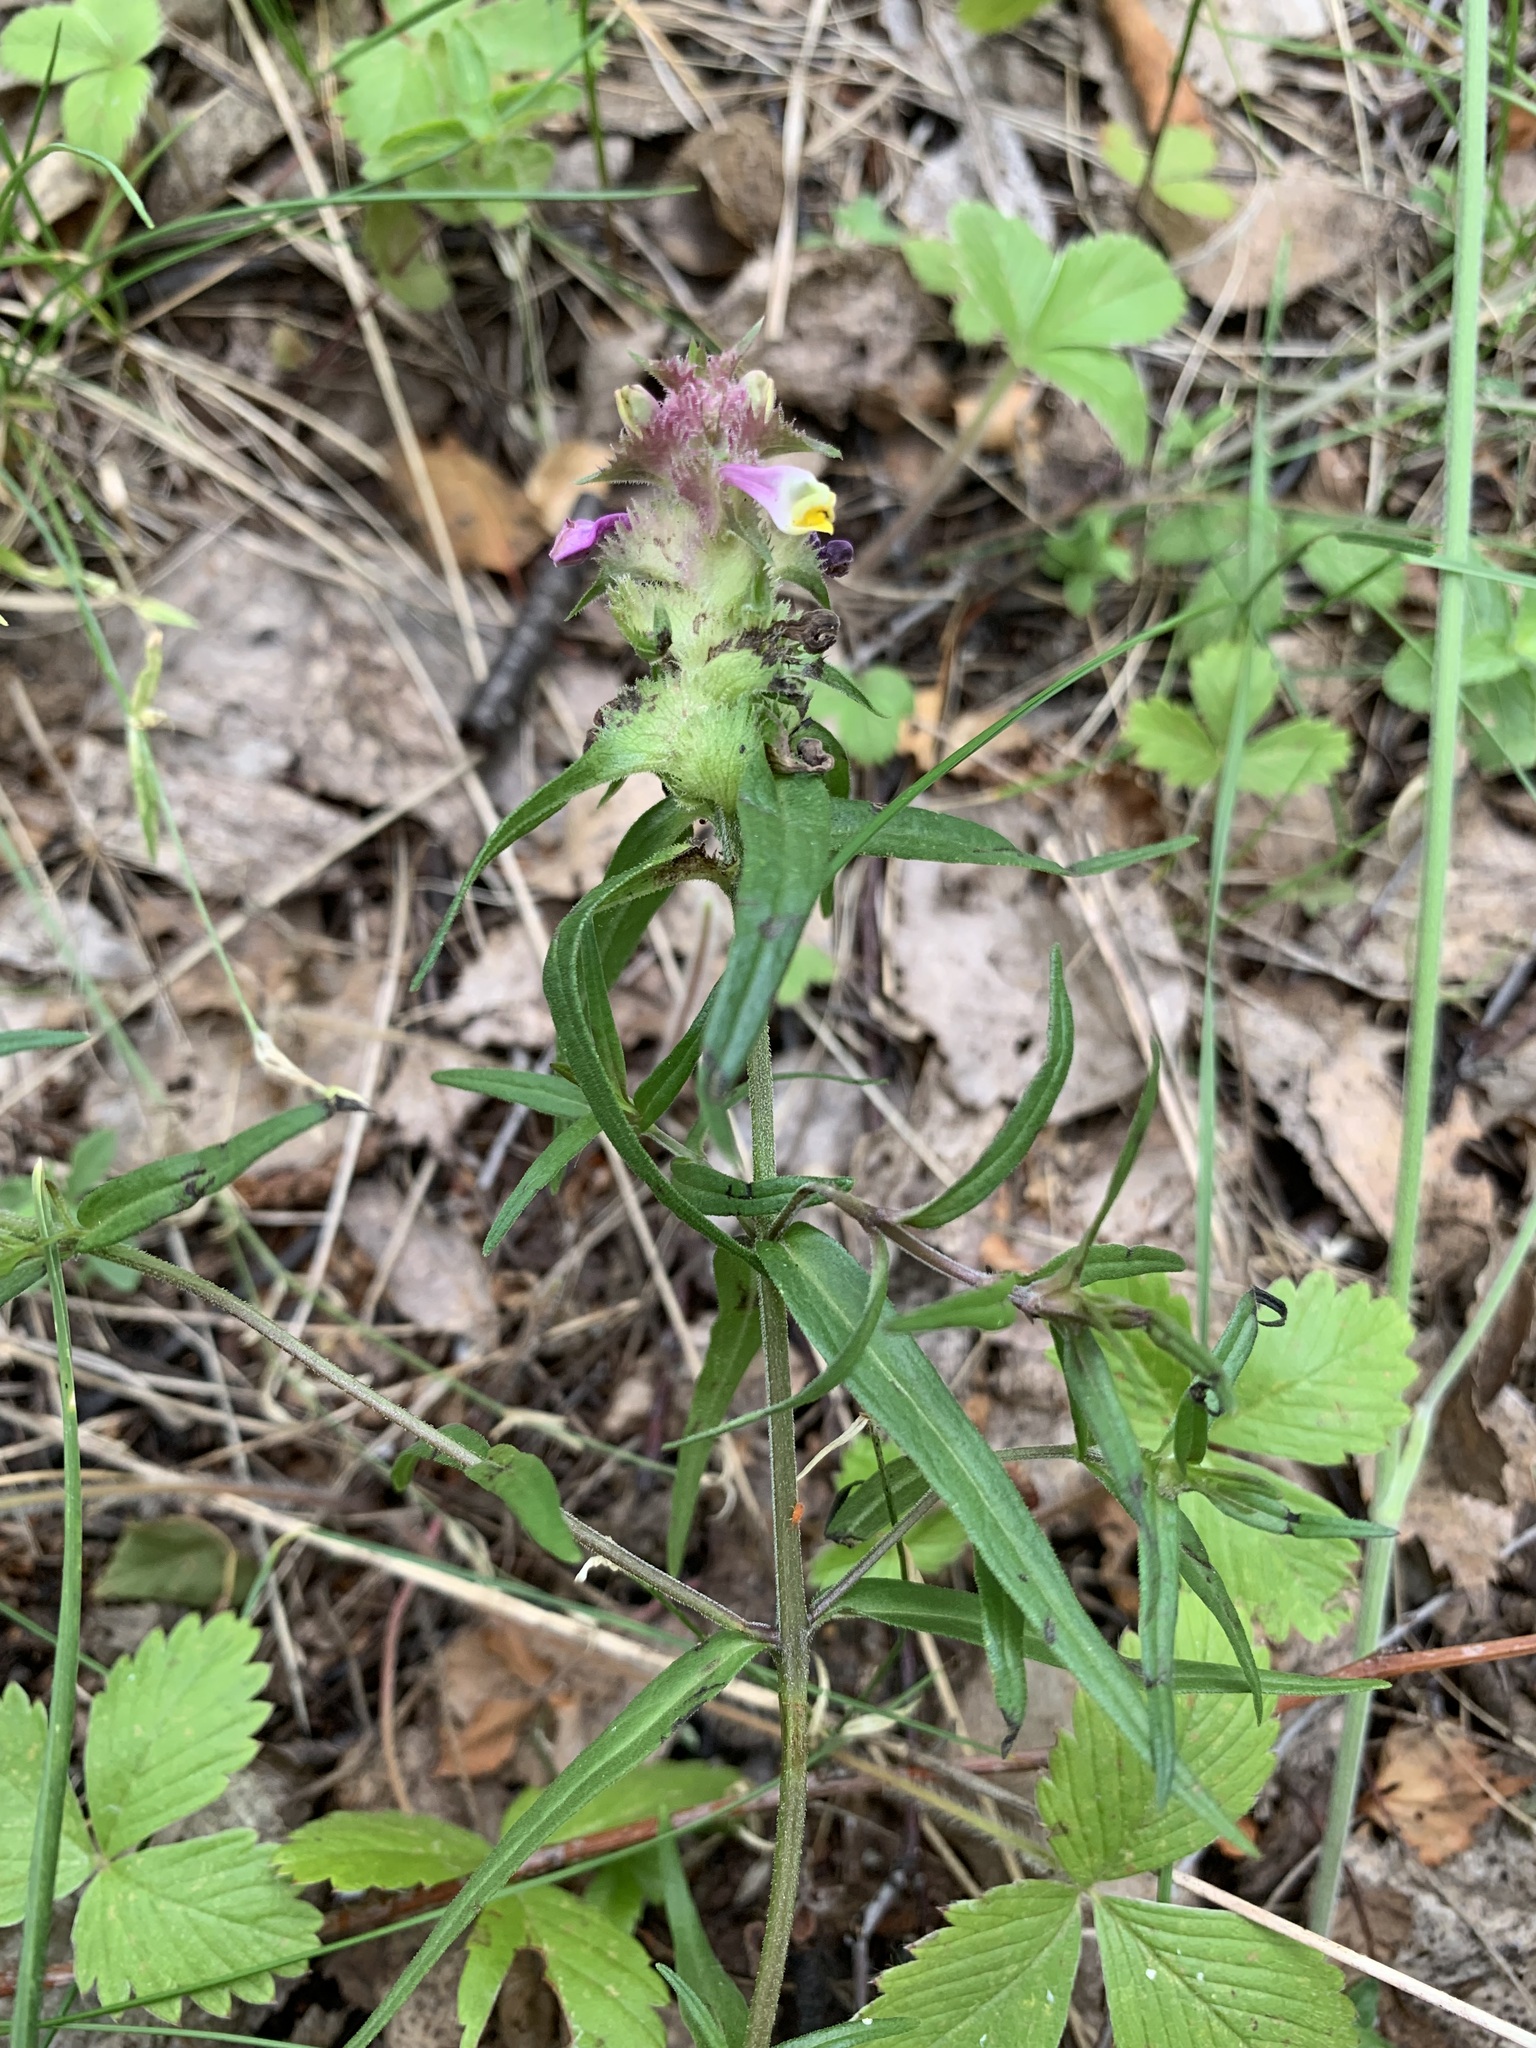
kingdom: Plantae
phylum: Tracheophyta
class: Magnoliopsida
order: Lamiales
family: Orobanchaceae
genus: Melampyrum
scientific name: Melampyrum cristatum
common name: Crested cow-wheat
